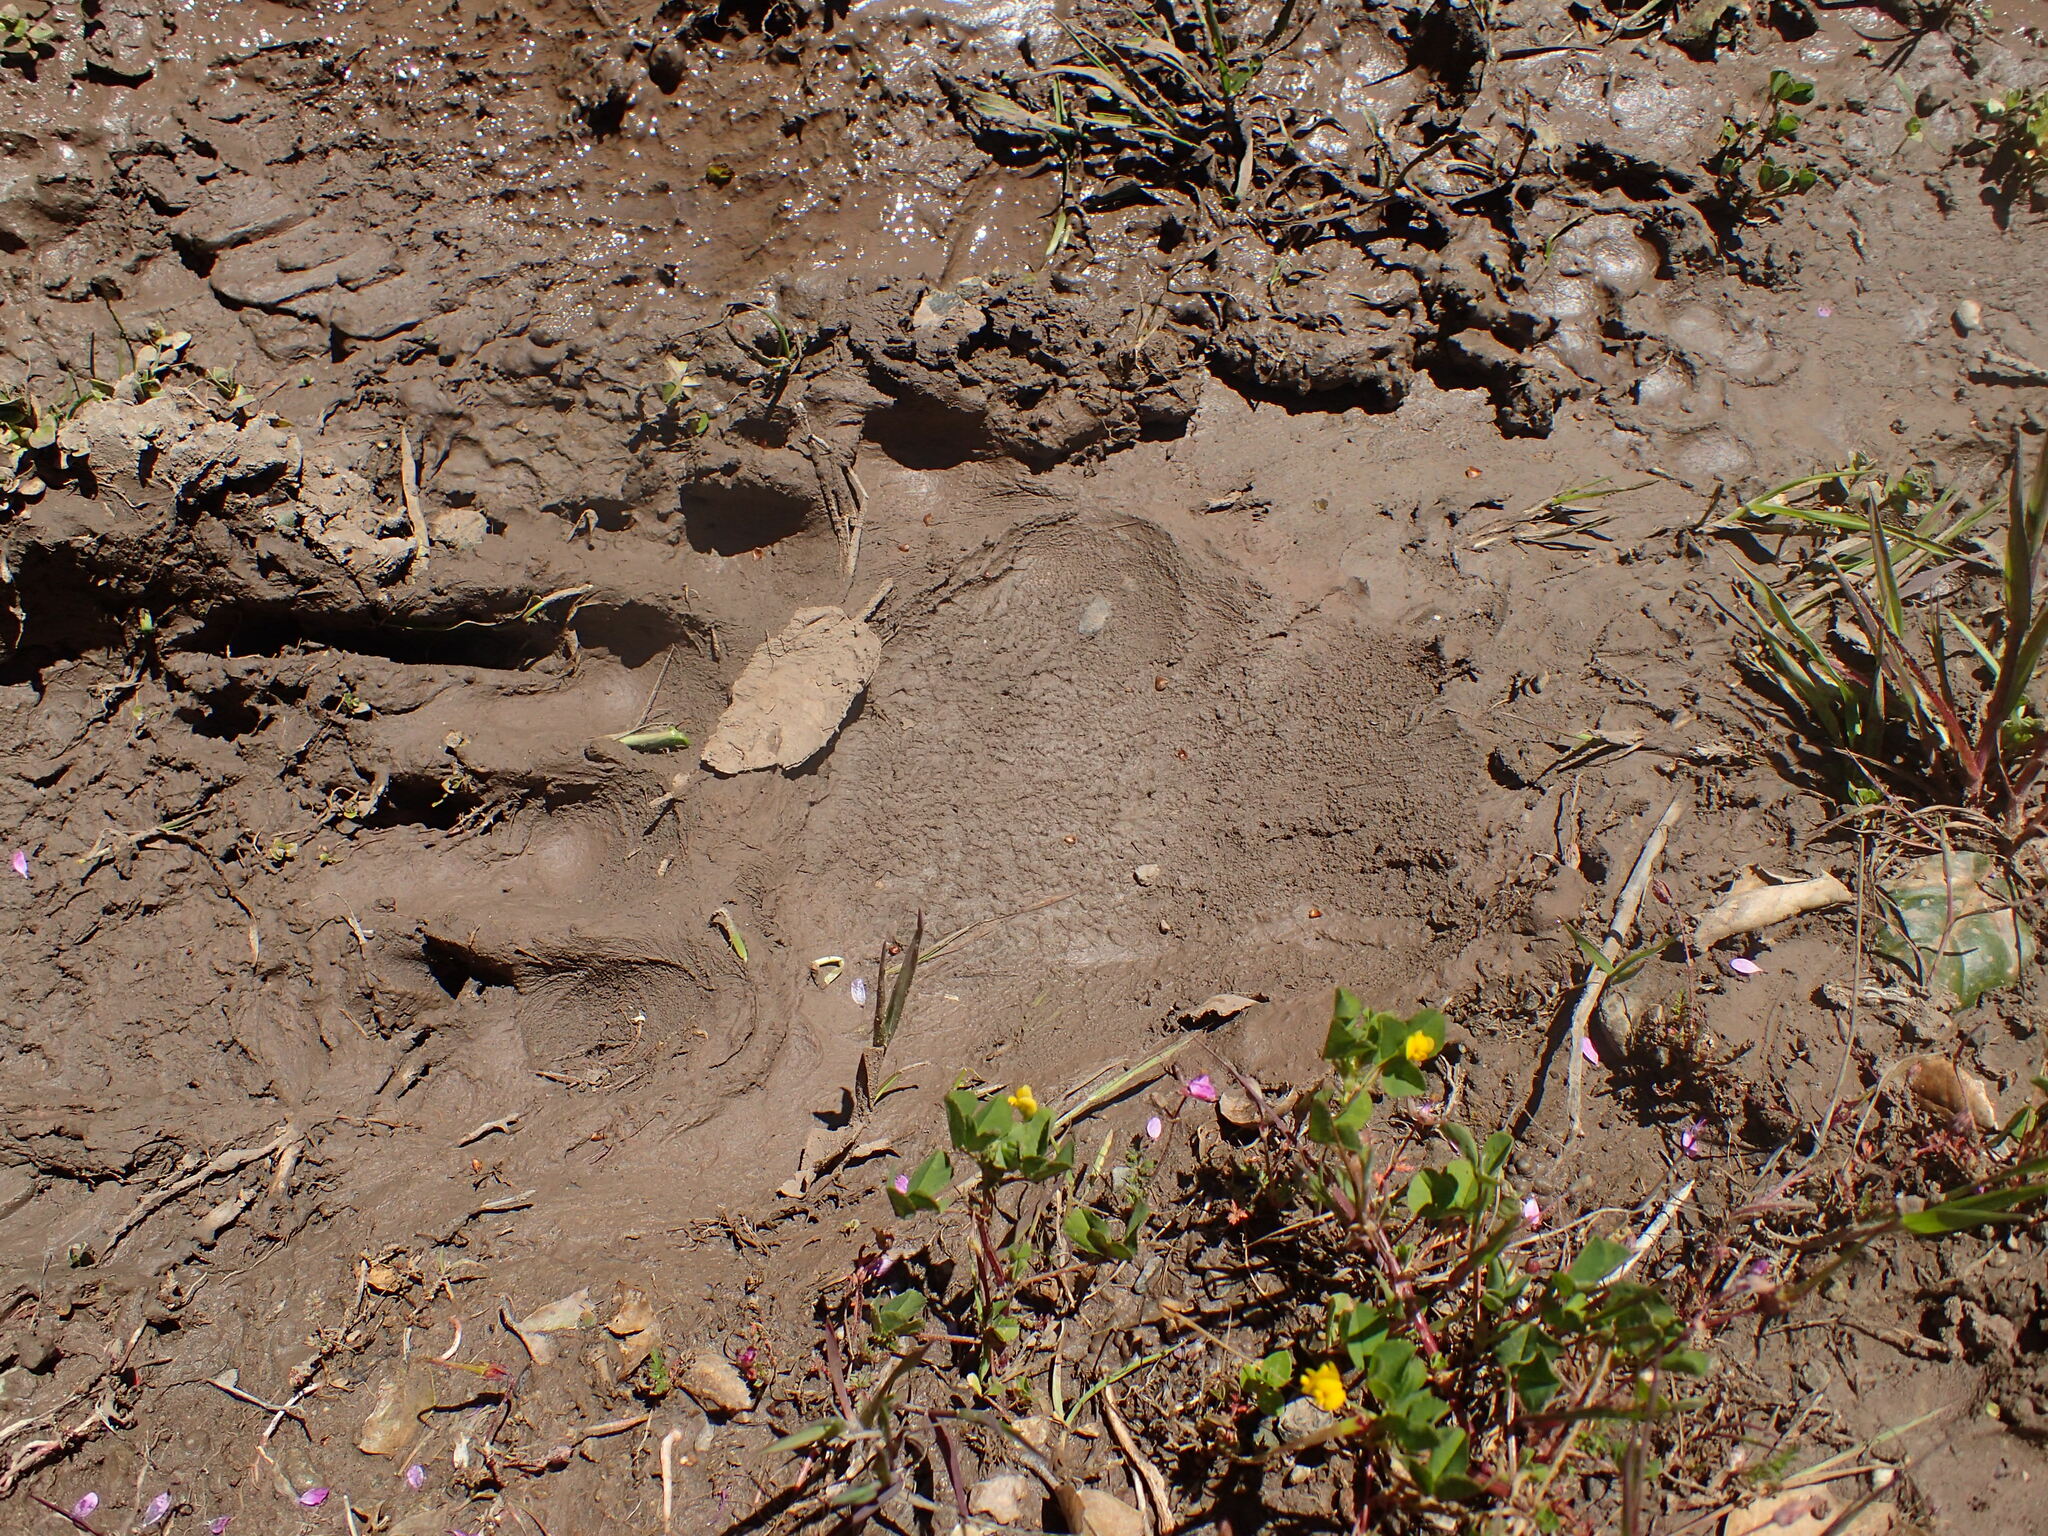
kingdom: Animalia
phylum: Chordata
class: Mammalia
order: Carnivora
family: Ursidae
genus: Ursus
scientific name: Ursus americanus
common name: American black bear
